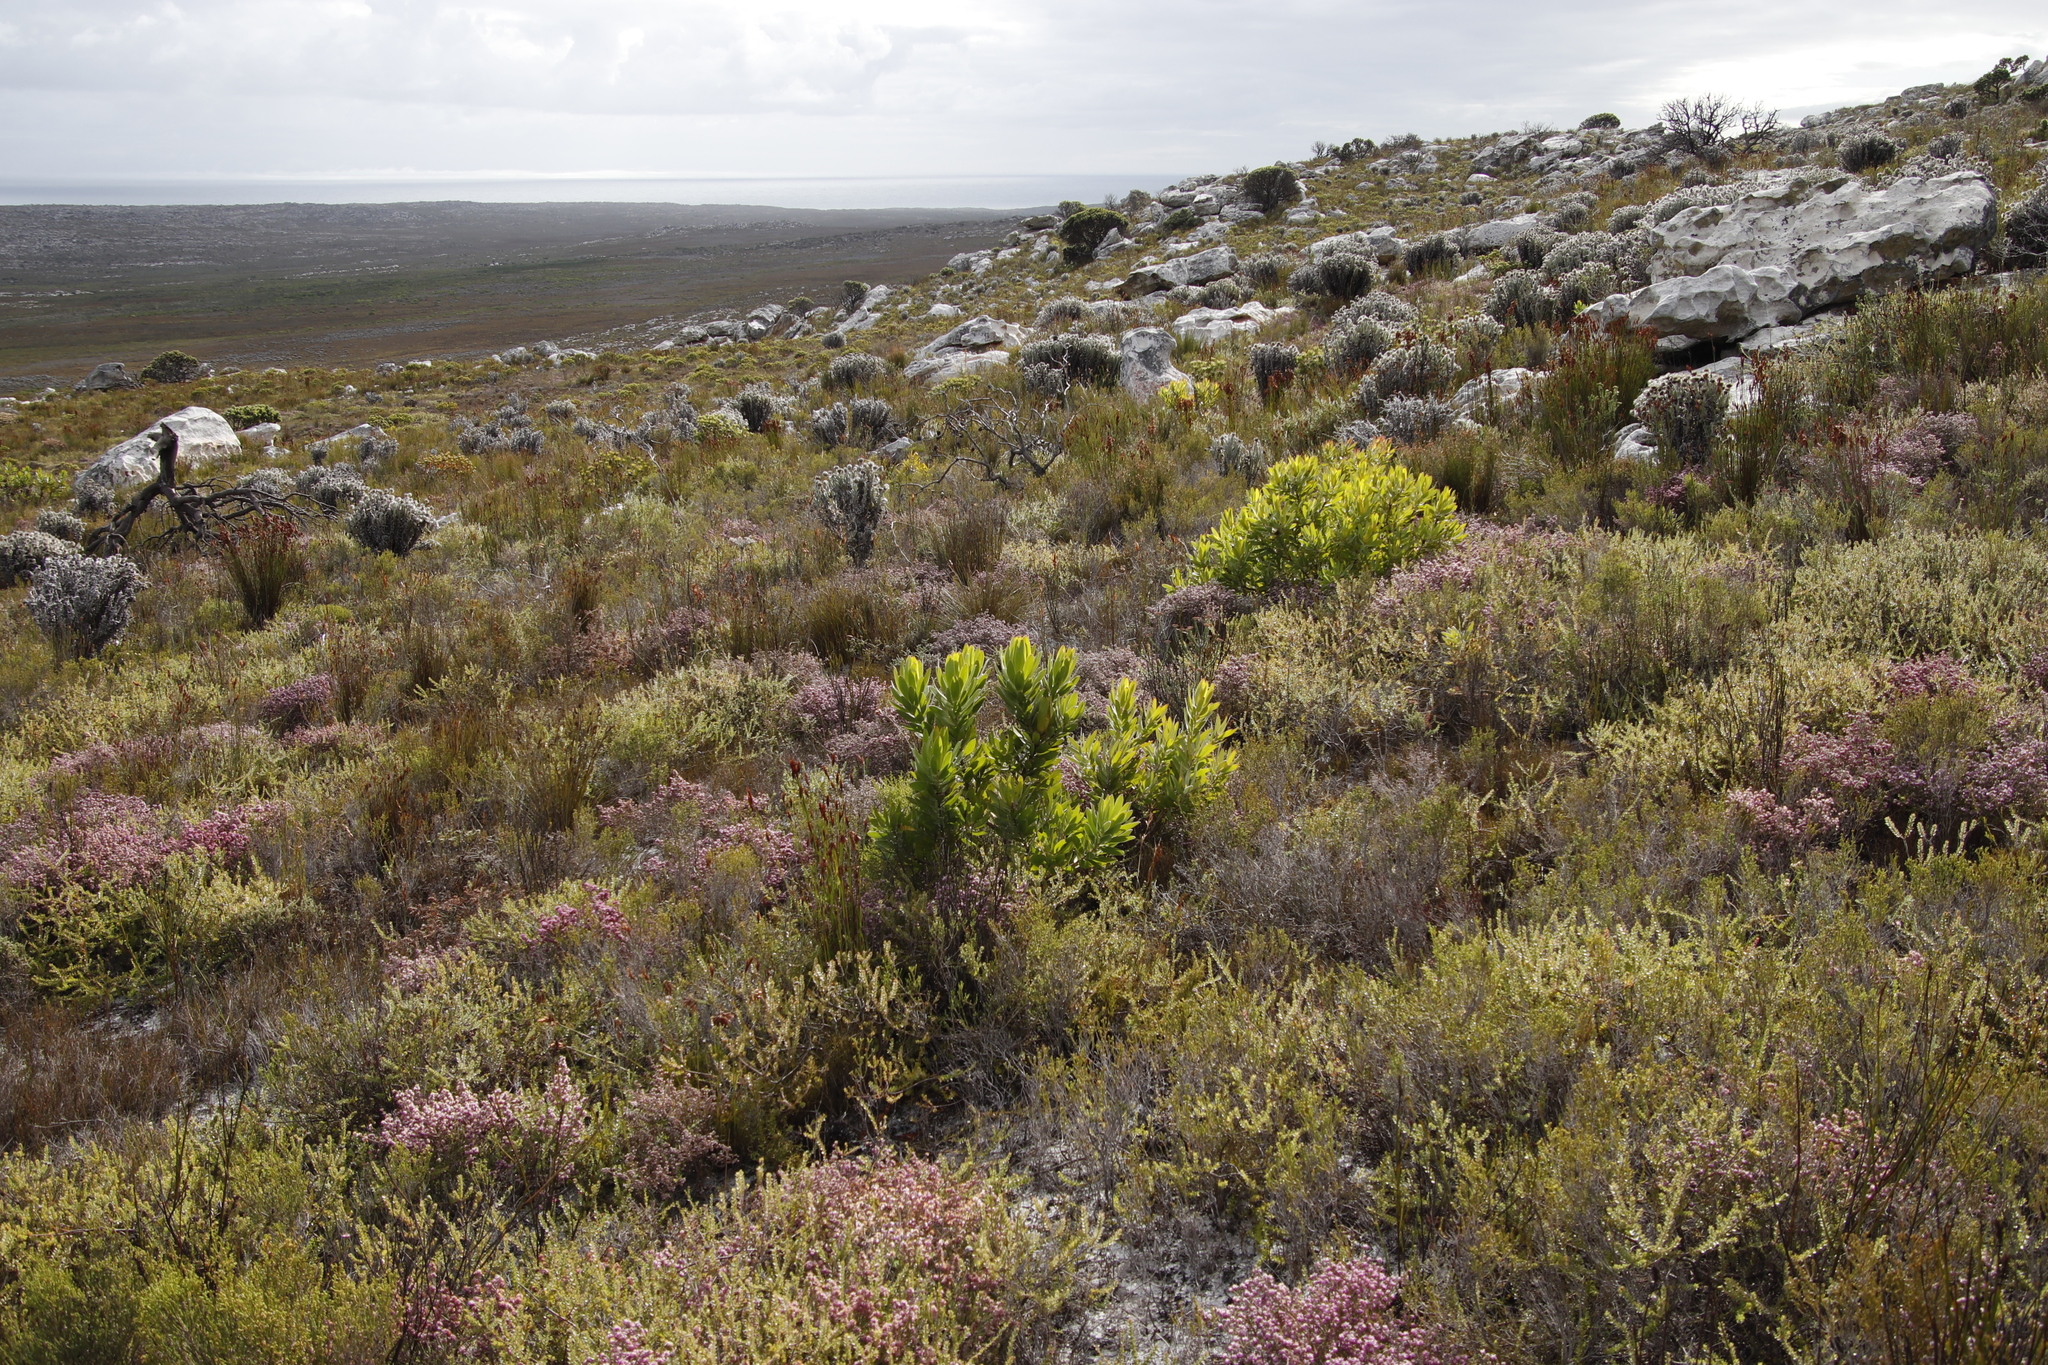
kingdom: Plantae
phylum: Tracheophyta
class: Magnoliopsida
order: Proteales
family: Proteaceae
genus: Leucadendron
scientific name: Leucadendron laureolum
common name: Golden sunshinebush
